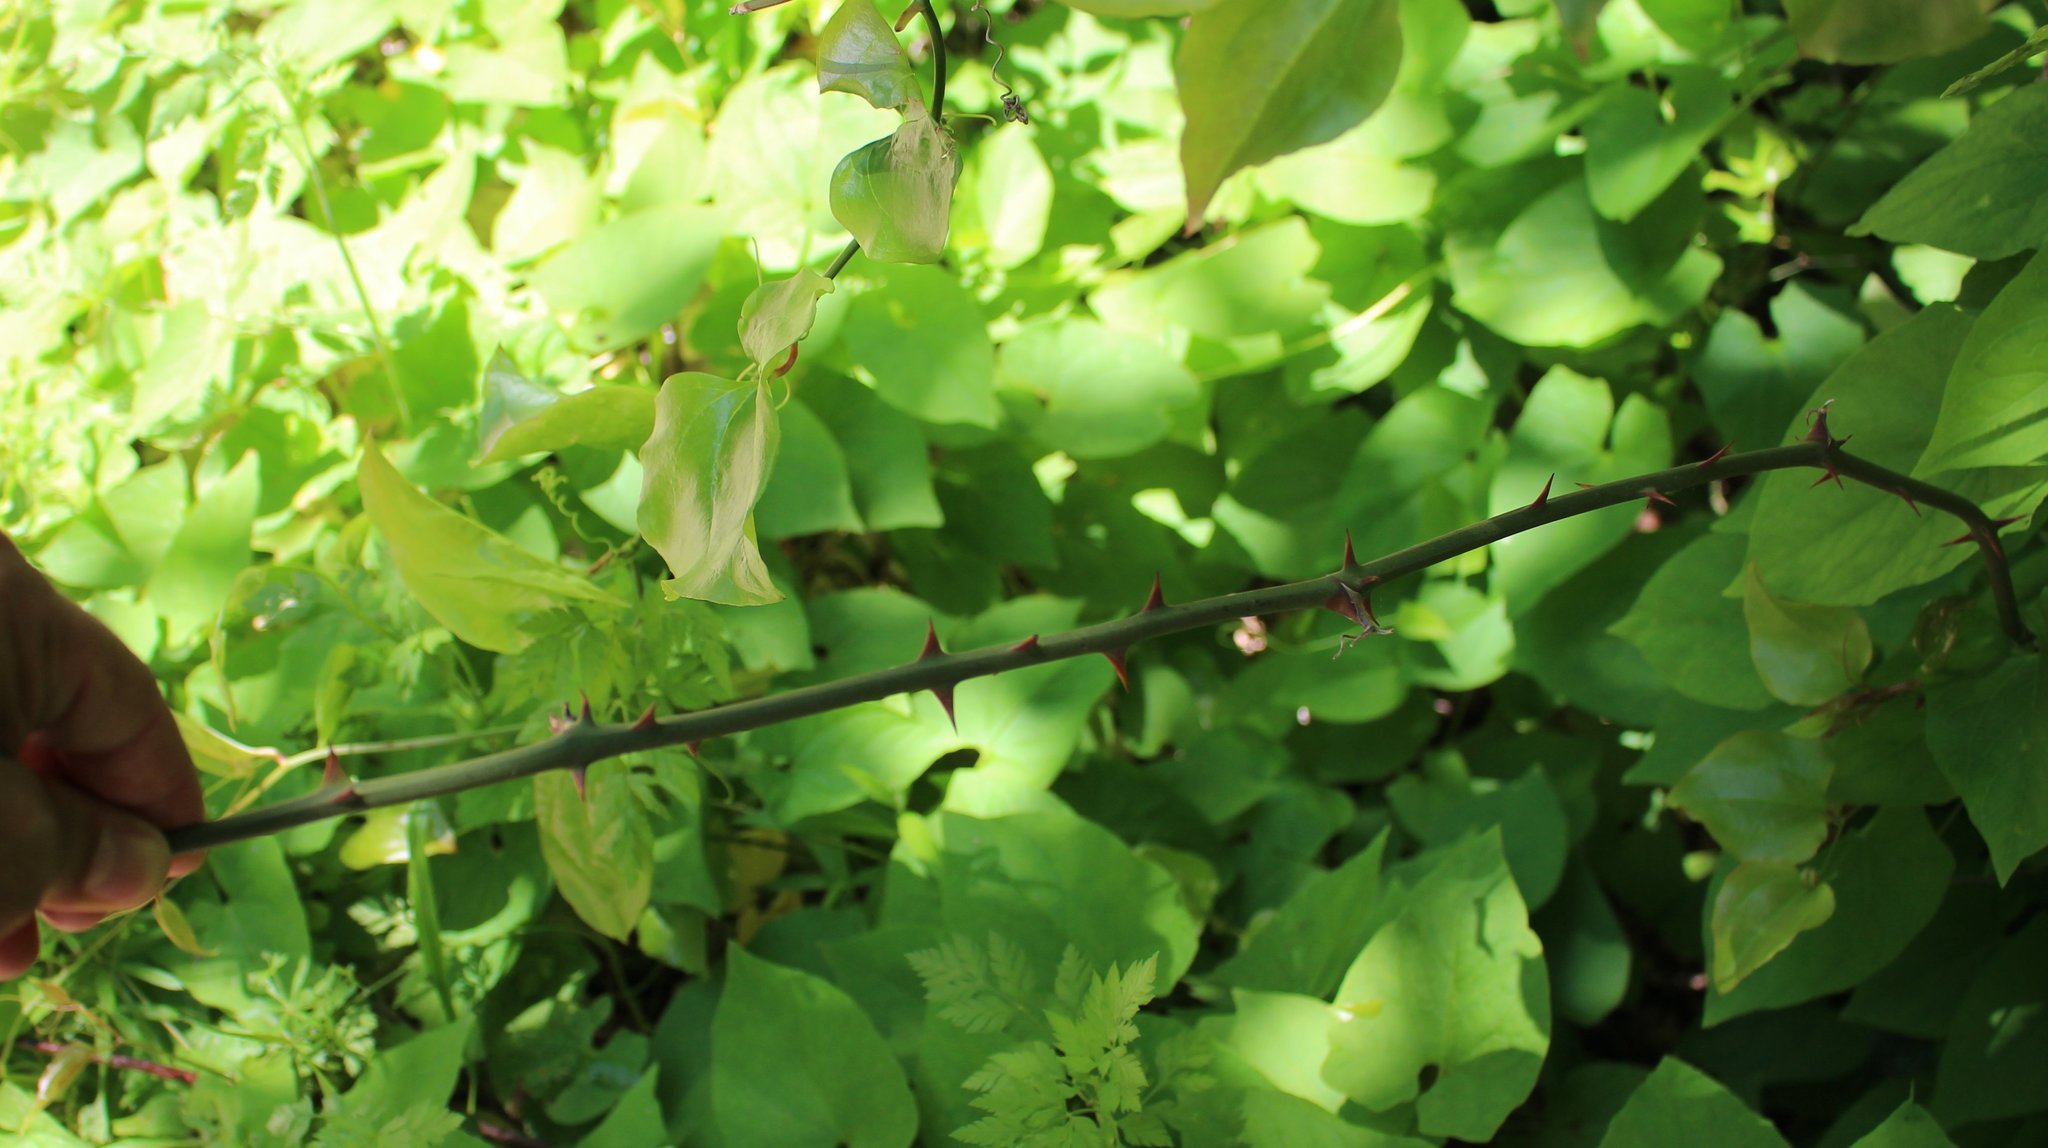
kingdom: Plantae
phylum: Tracheophyta
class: Liliopsida
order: Liliales
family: Smilacaceae
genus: Smilax
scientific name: Smilax excelsa
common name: Larger smilax
